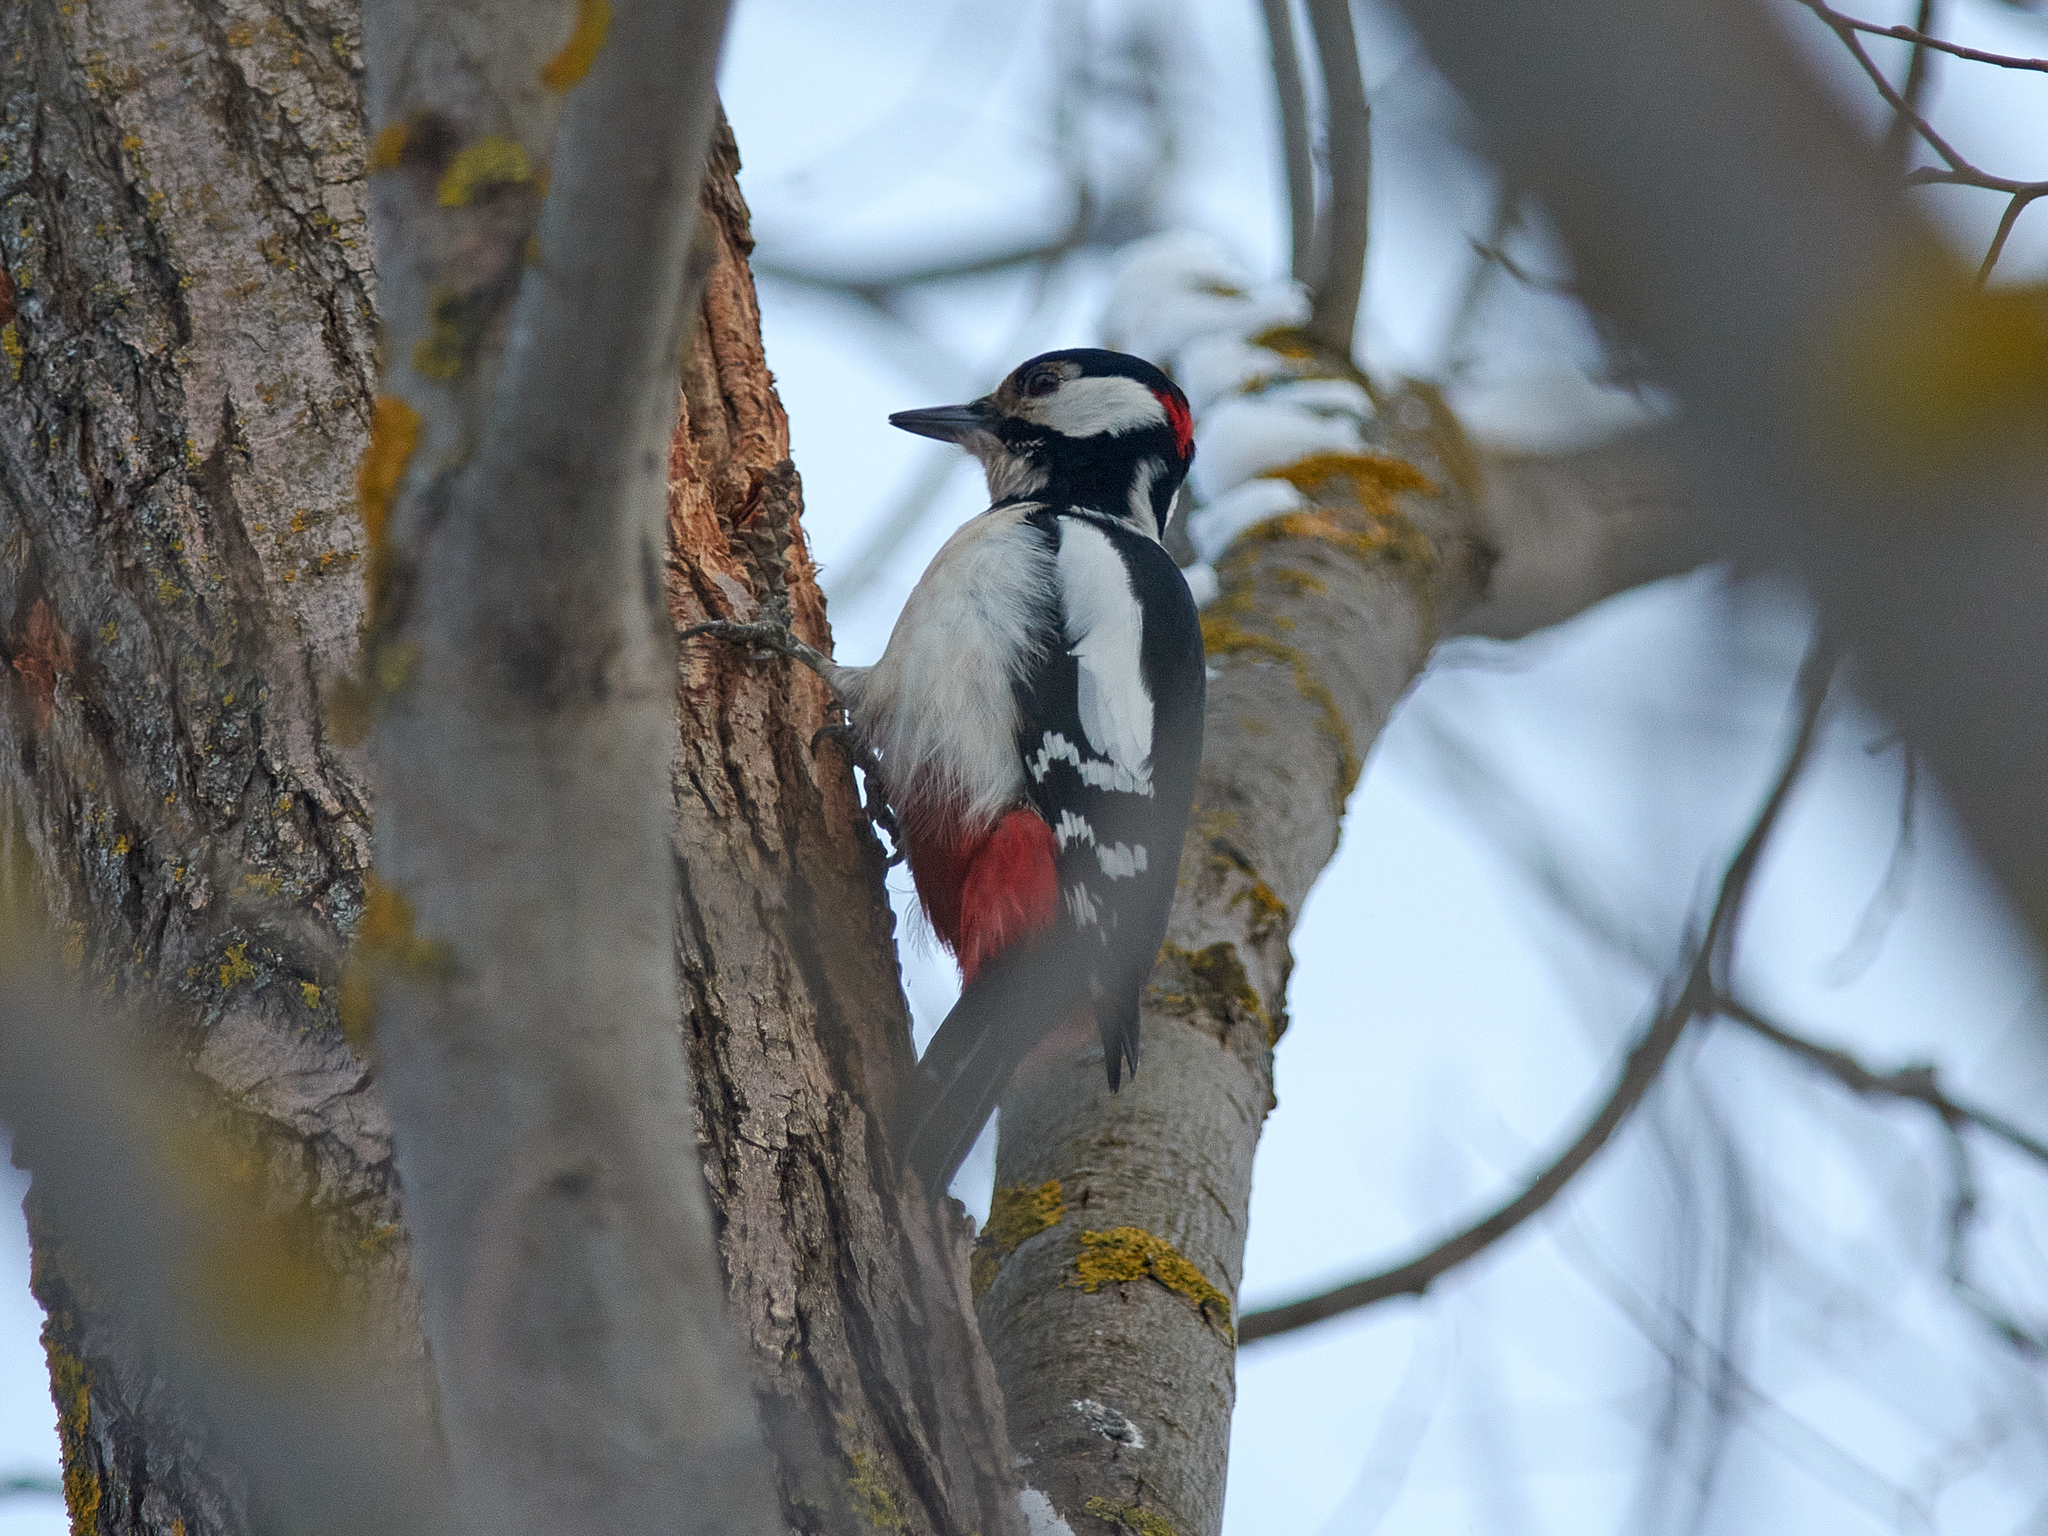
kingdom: Animalia
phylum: Chordata
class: Aves
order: Piciformes
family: Picidae
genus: Dendrocopos
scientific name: Dendrocopos major
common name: Great spotted woodpecker
